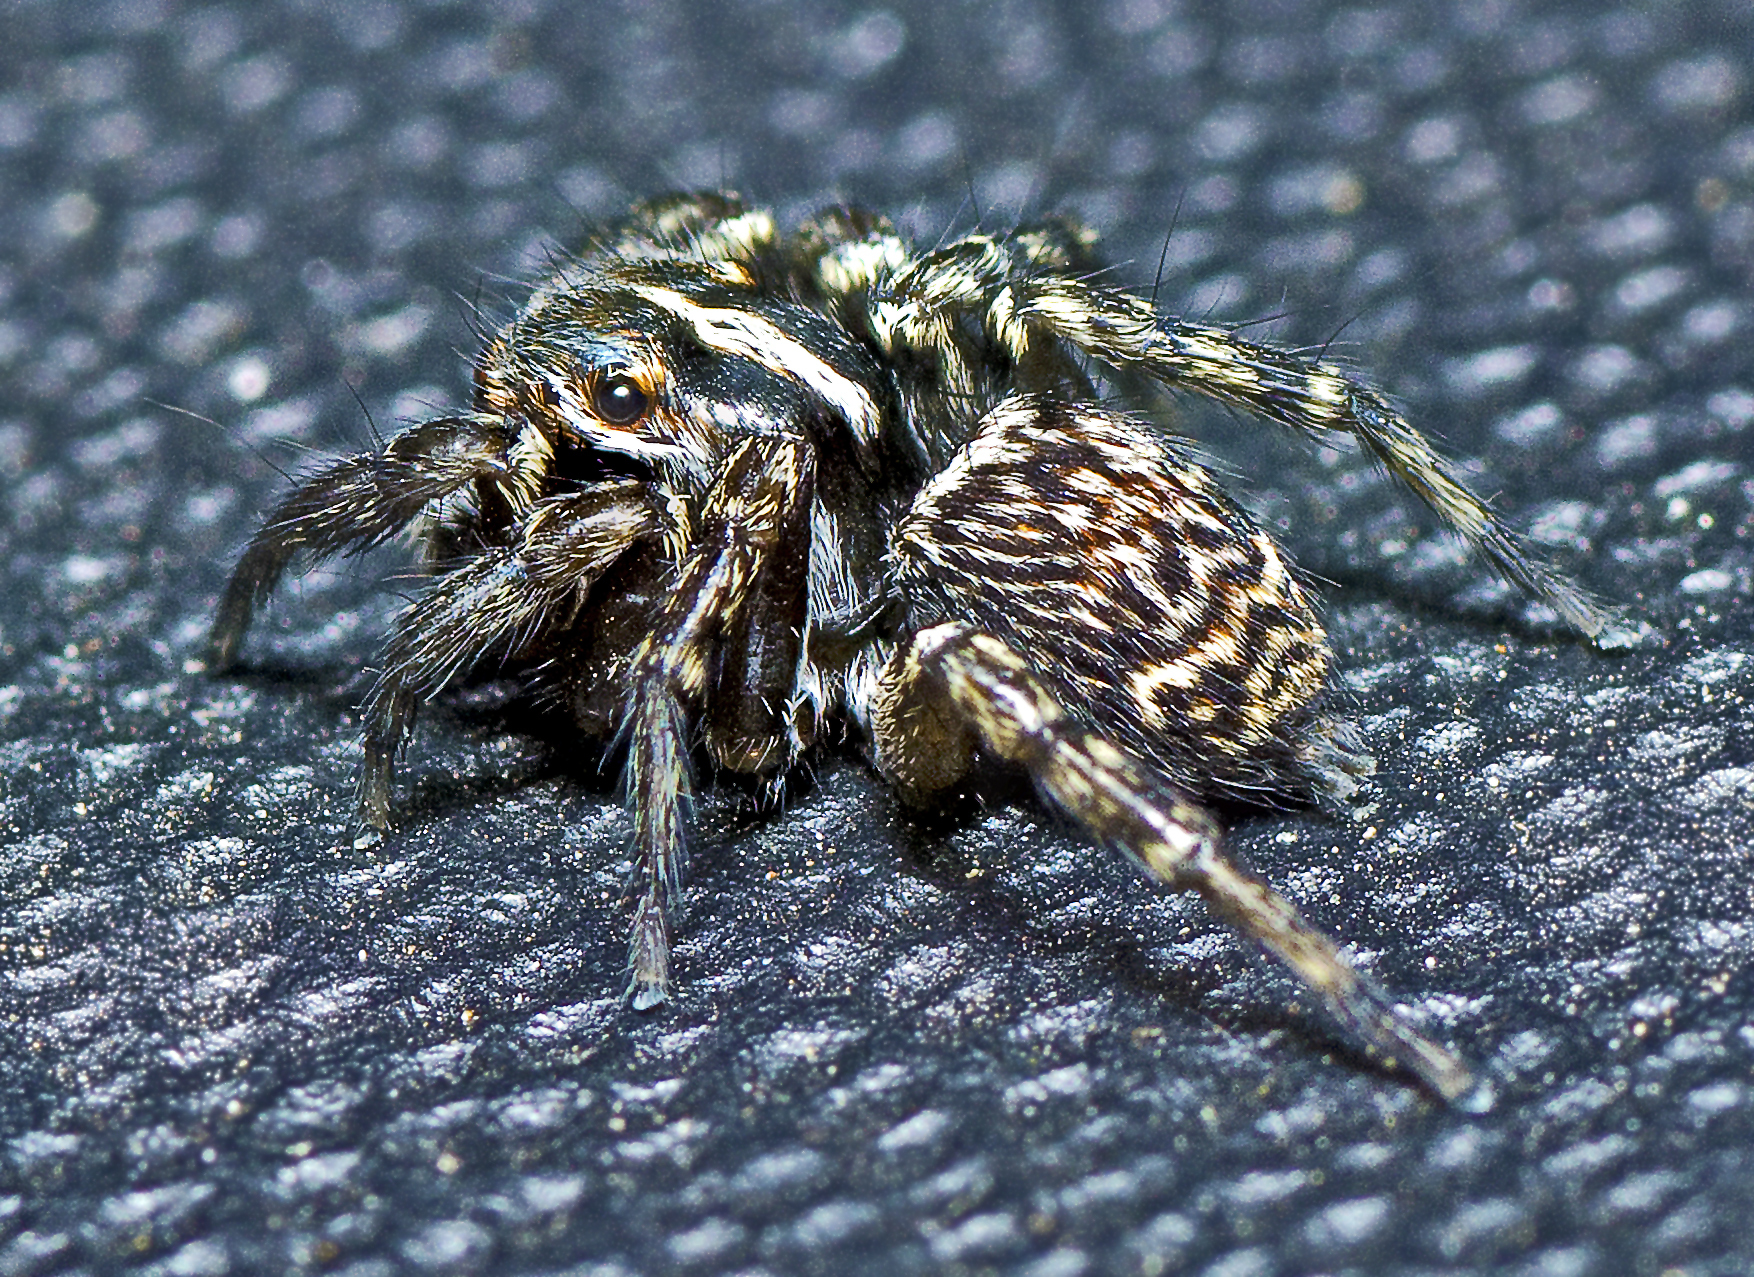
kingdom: Animalia
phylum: Arthropoda
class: Arachnida
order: Araneae
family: Salticidae
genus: Saitis
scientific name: Saitis virgatus
